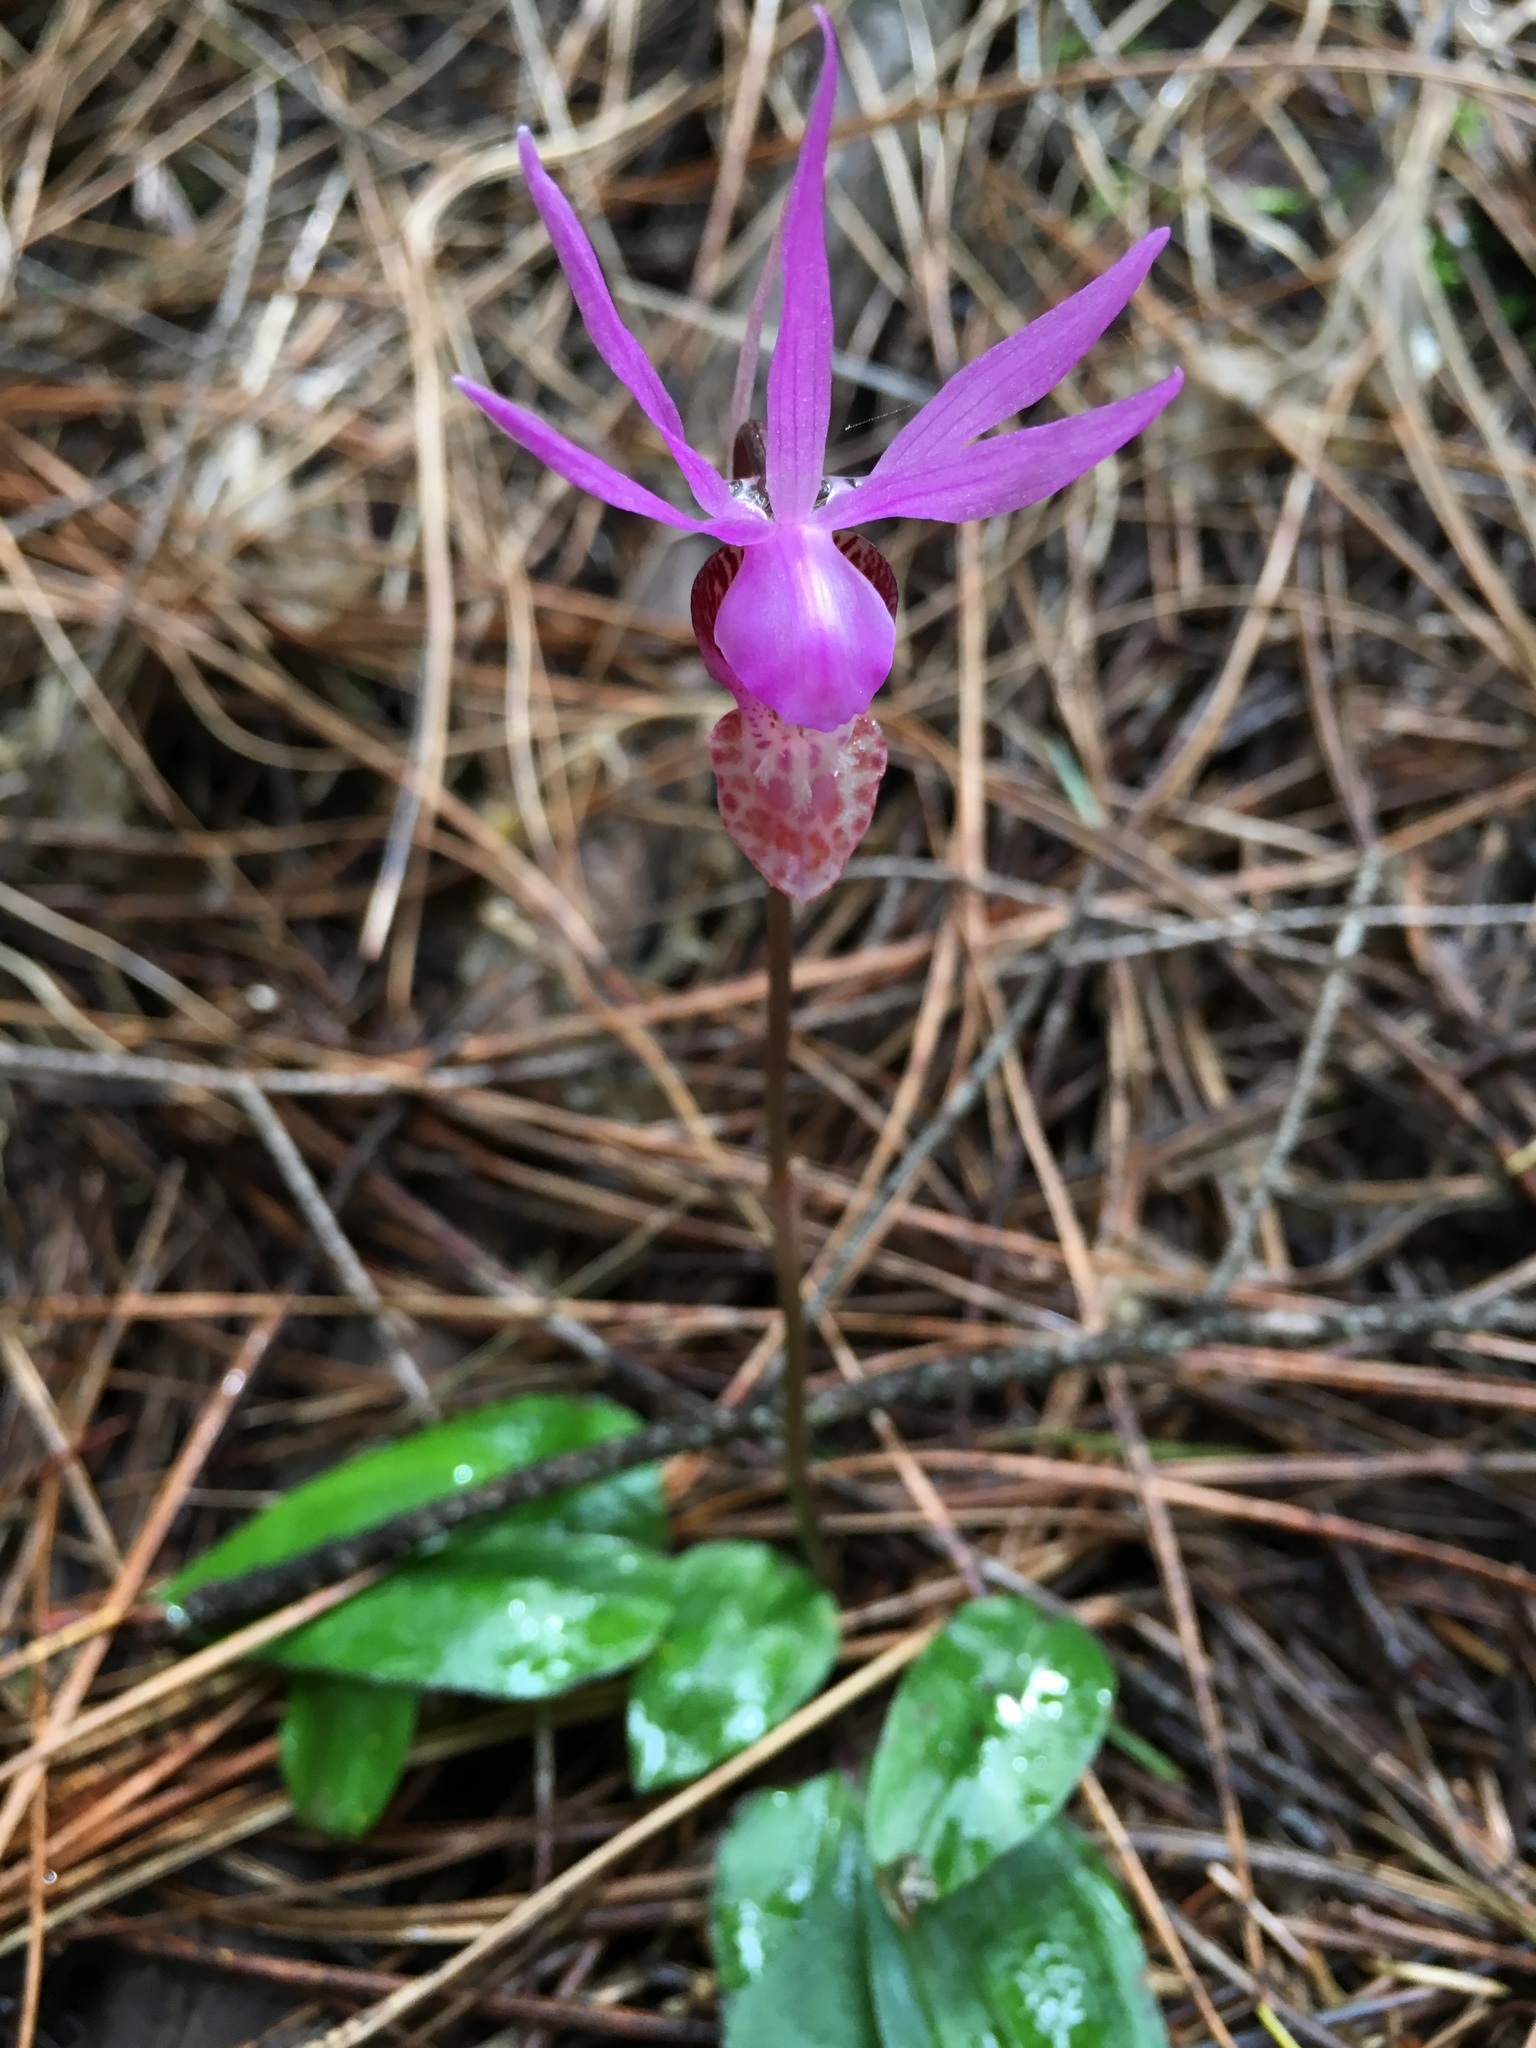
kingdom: Plantae
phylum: Tracheophyta
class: Liliopsida
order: Asparagales
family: Orchidaceae
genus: Calypso
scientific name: Calypso bulbosa
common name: Calypso
